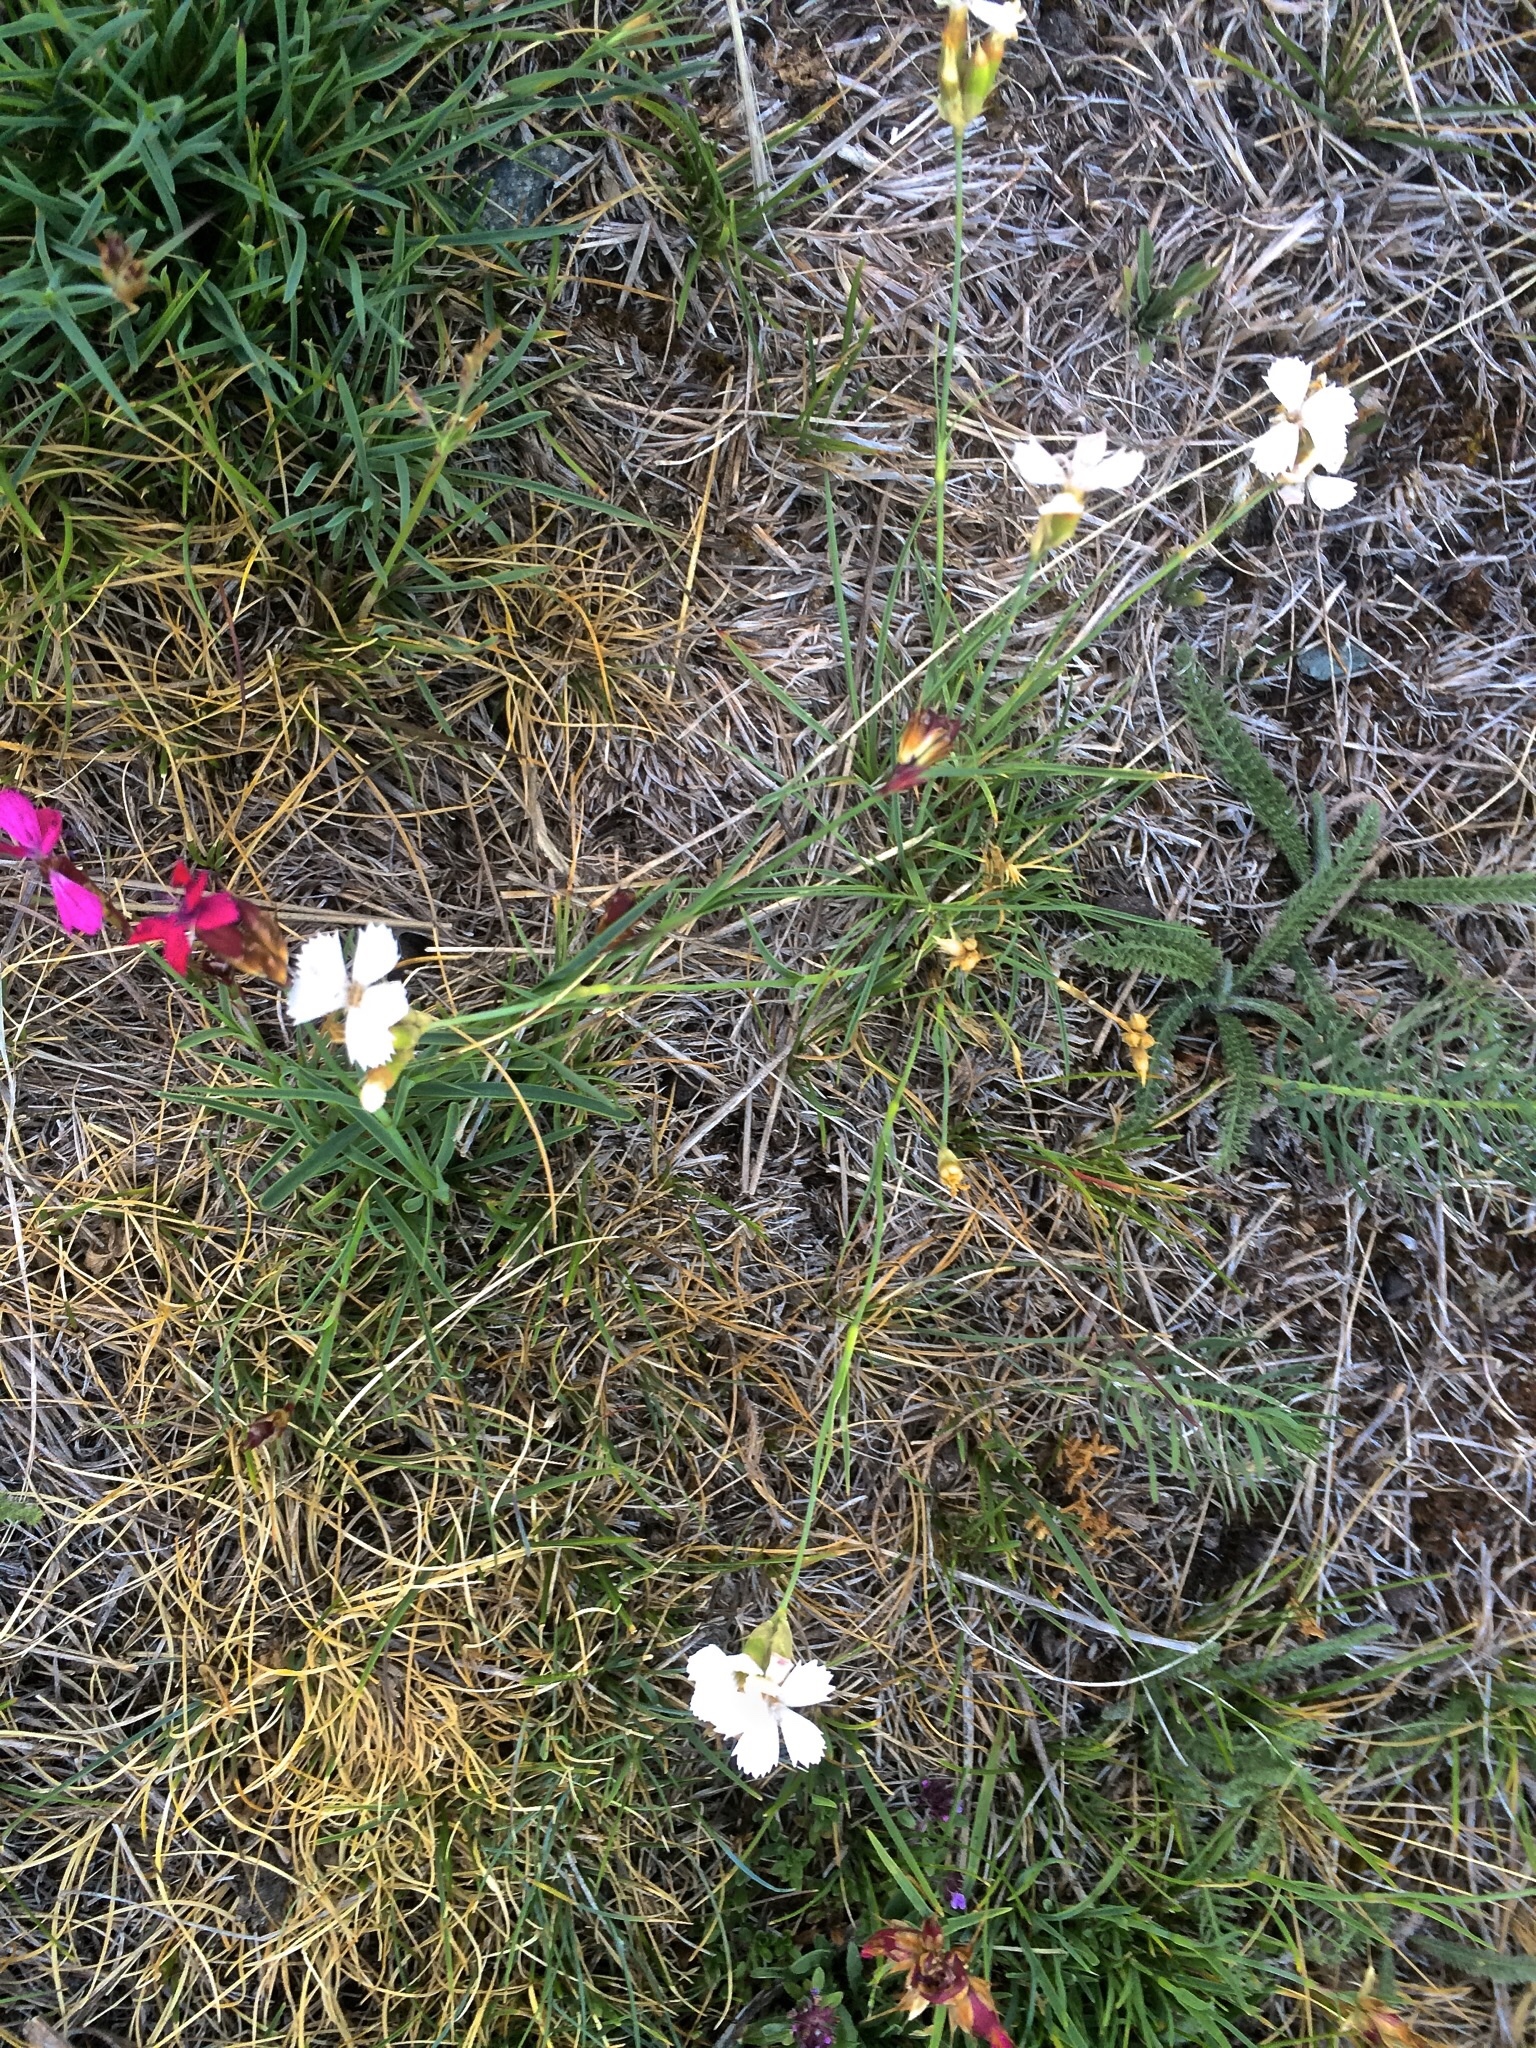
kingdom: Plantae
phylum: Tracheophyta
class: Magnoliopsida
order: Caryophyllales
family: Caryophyllaceae
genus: Dianthus
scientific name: Dianthus carthusianorum
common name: Carthusian pink
